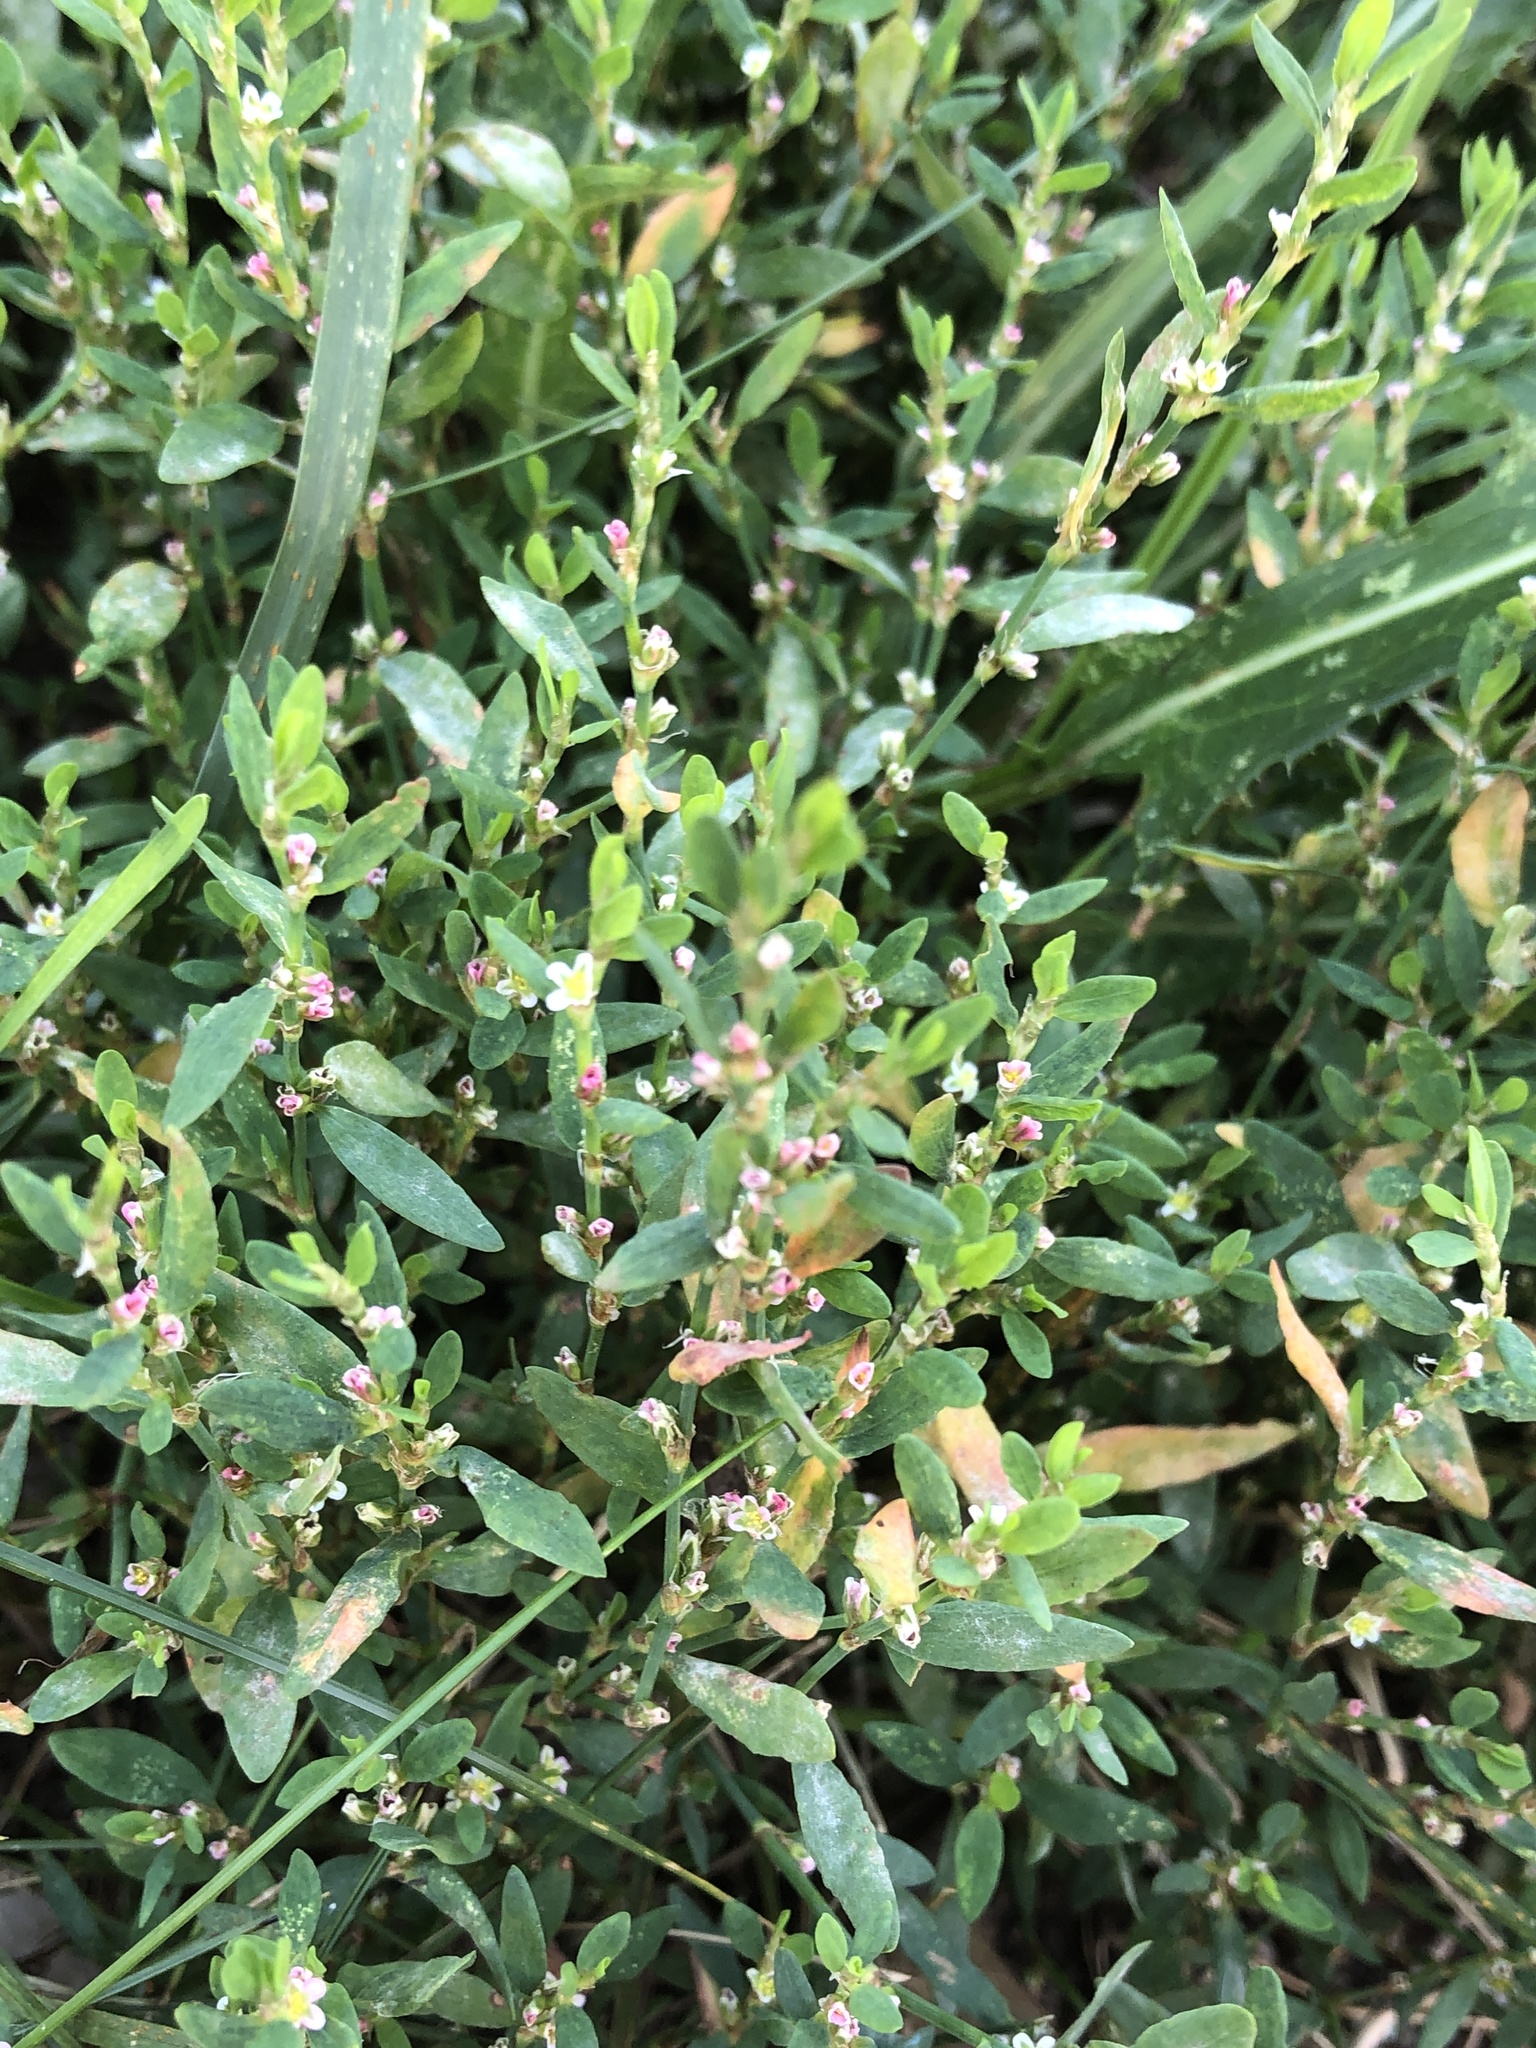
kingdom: Plantae
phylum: Tracheophyta
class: Magnoliopsida
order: Caryophyllales
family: Polygonaceae
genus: Polygonum
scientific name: Polygonum aviculare
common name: Prostrate knotweed
